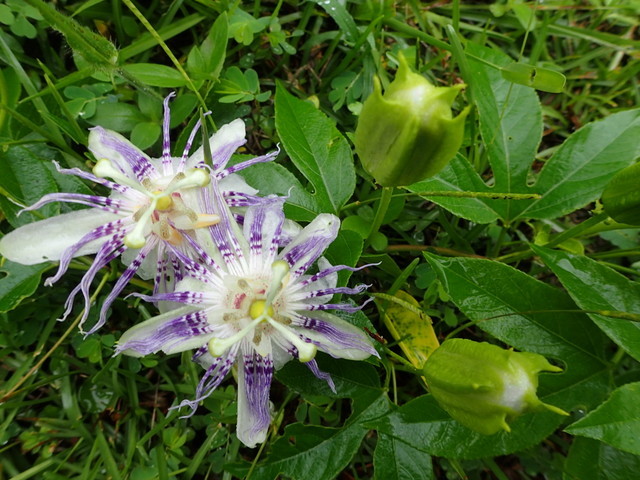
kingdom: Plantae
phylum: Tracheophyta
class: Magnoliopsida
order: Malpighiales
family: Passifloraceae
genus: Passiflora
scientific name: Passiflora incarnata
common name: Apricot-vine
